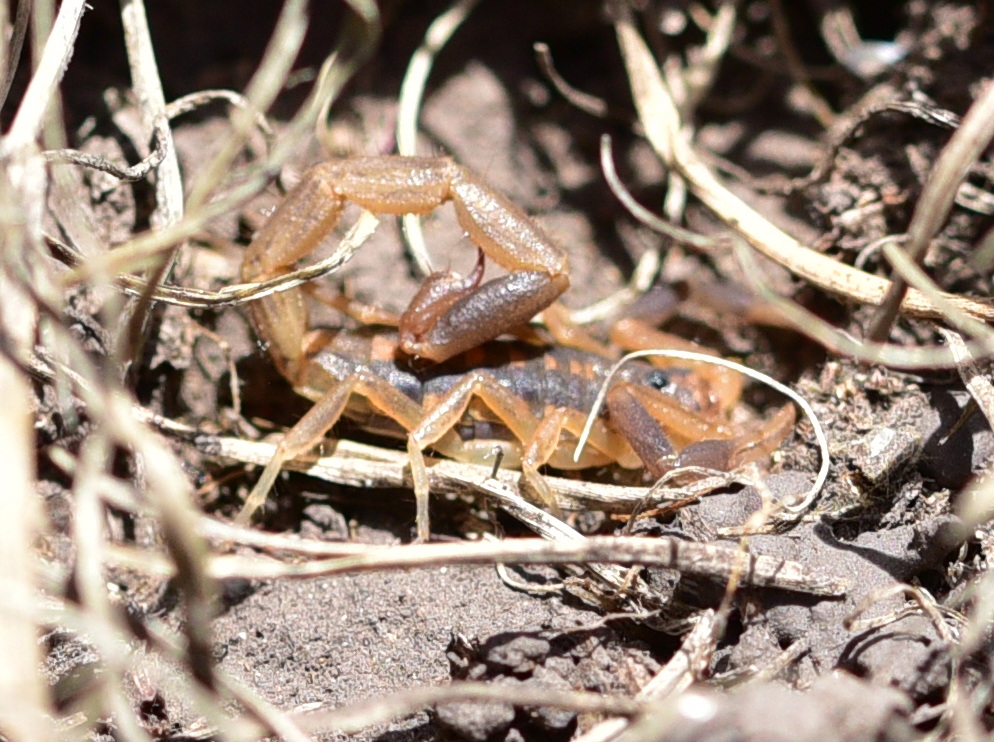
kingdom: Animalia
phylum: Arthropoda
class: Arachnida
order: Scorpiones
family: Buthidae
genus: Uroplectes
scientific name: Uroplectes triangulifer
